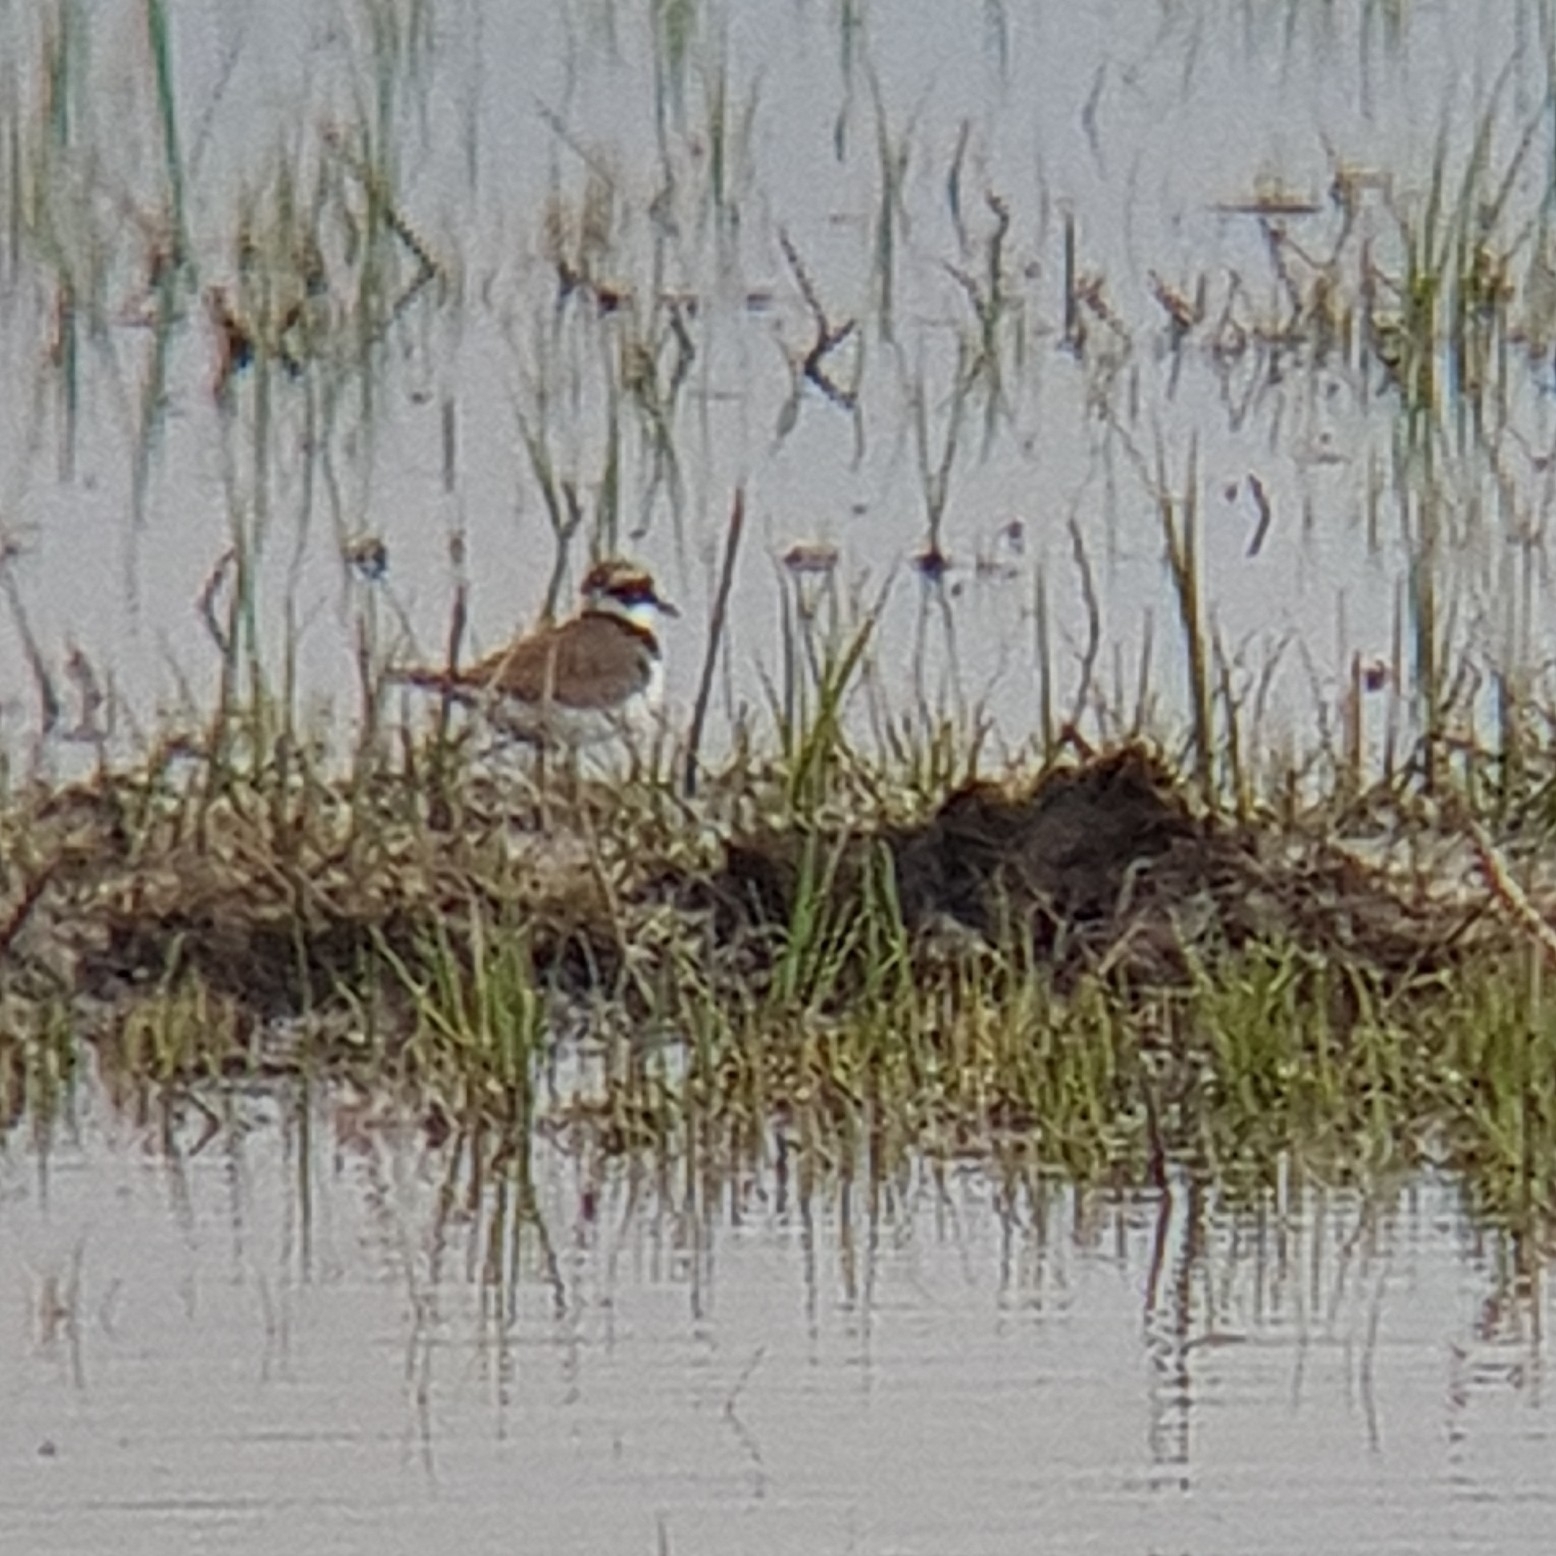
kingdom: Animalia
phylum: Chordata
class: Aves
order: Charadriiformes
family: Charadriidae
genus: Charadrius
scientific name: Charadrius dubius
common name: Little ringed plover
